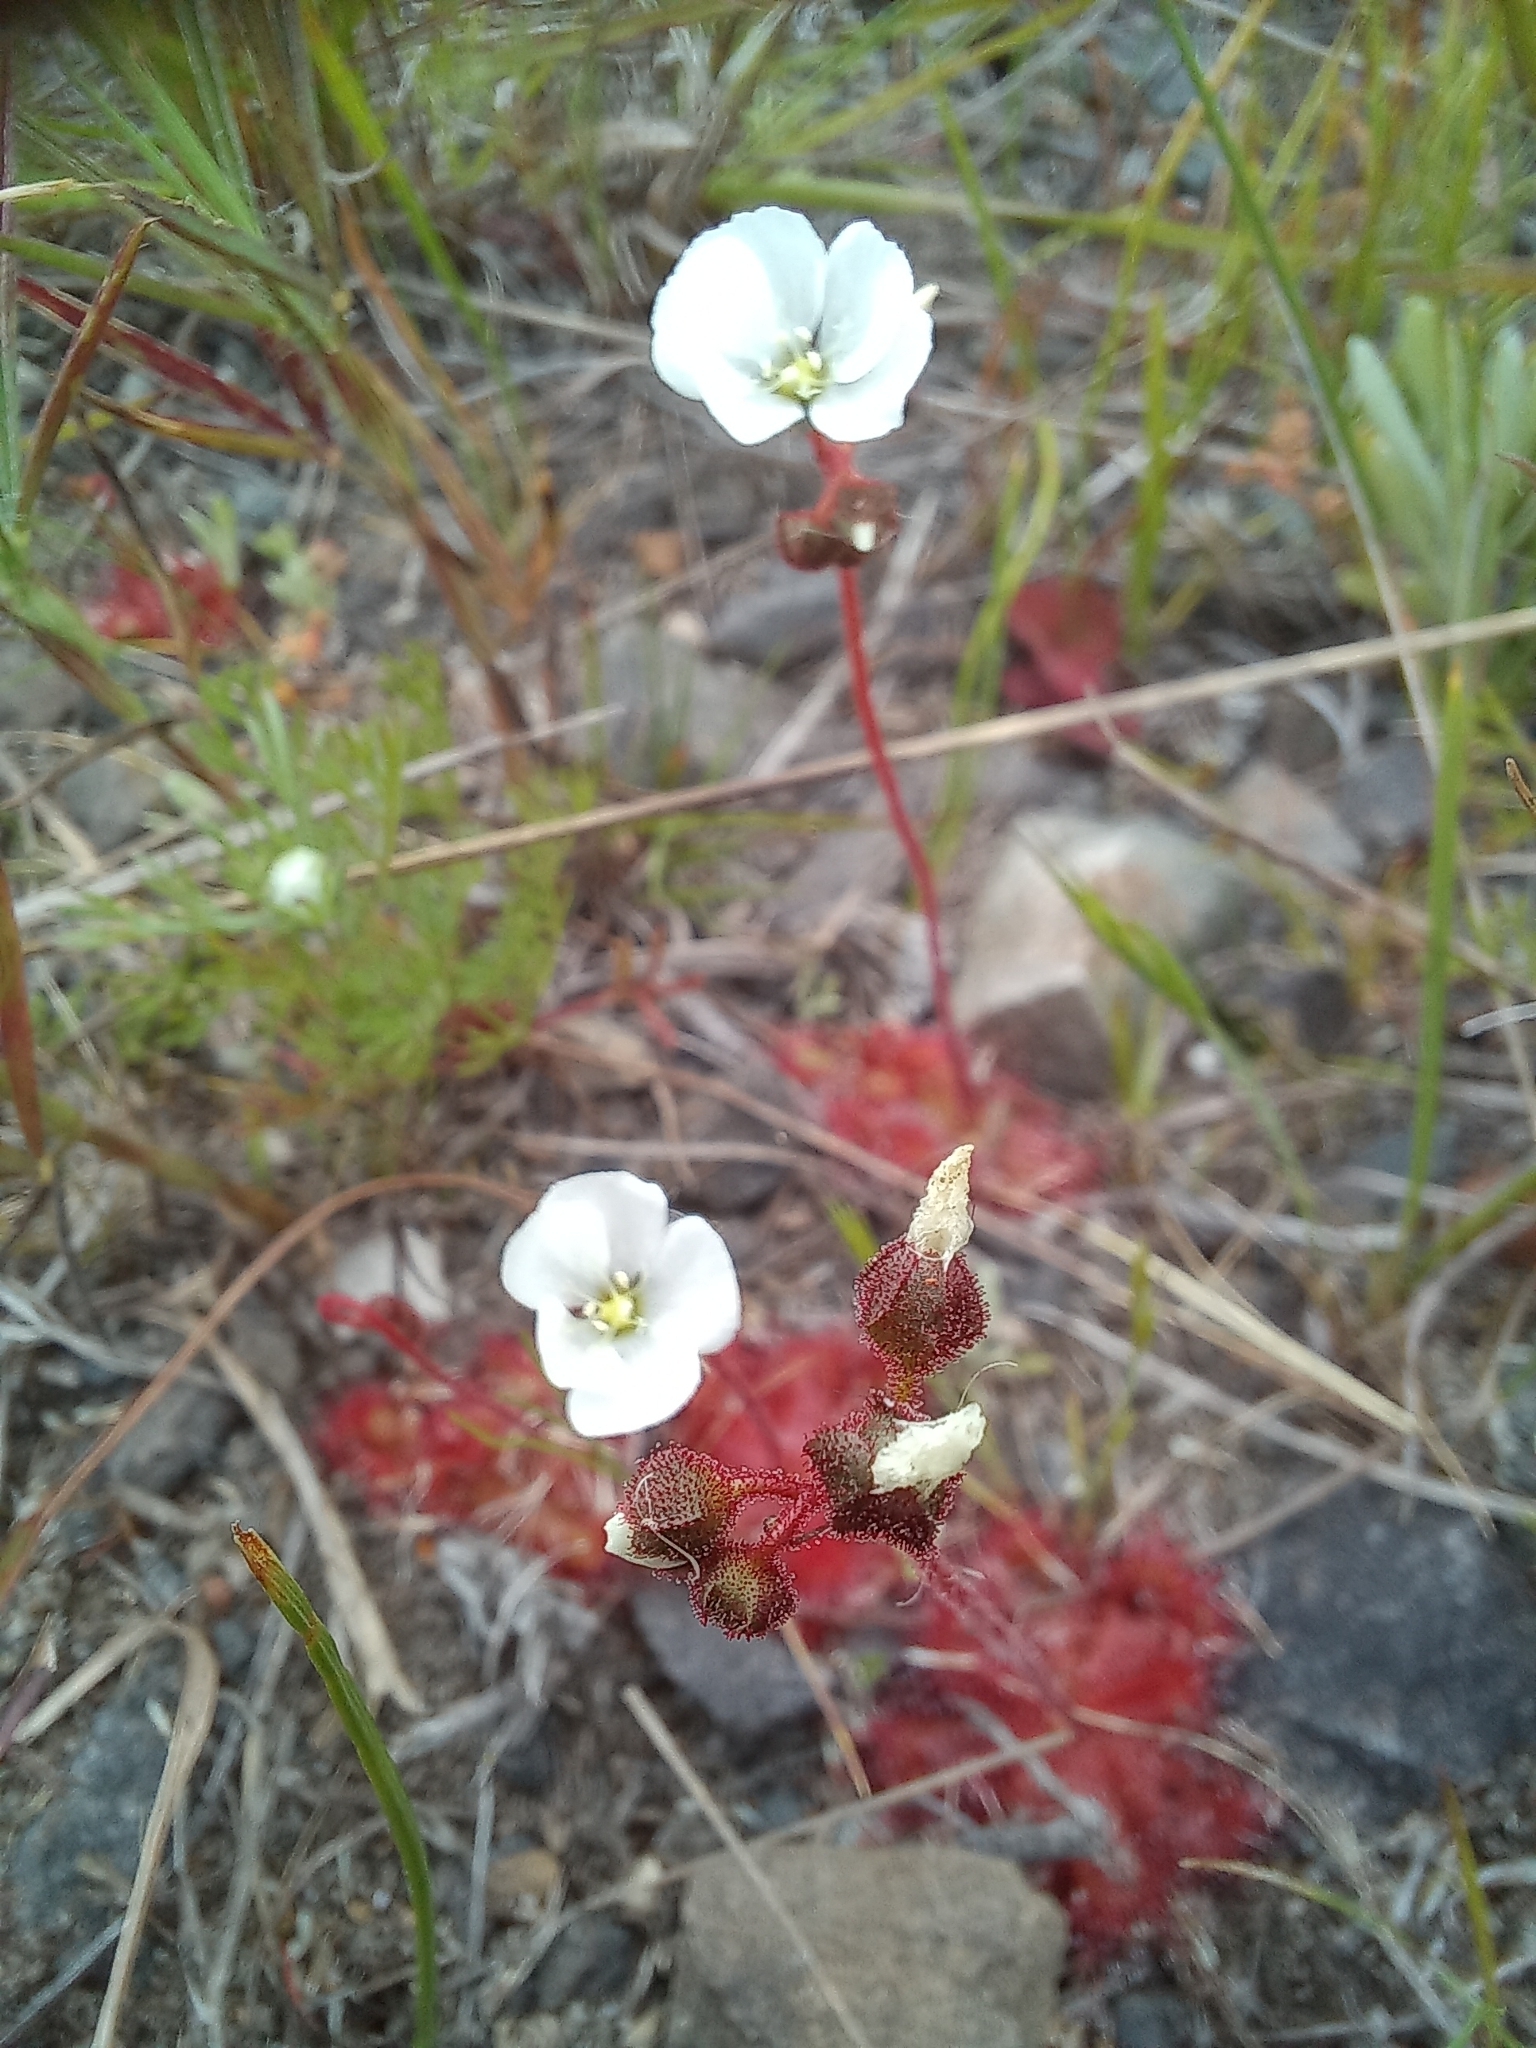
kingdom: Plantae
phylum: Tracheophyta
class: Magnoliopsida
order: Caryophyllales
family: Droseraceae
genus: Drosera
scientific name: Drosera trinervia
